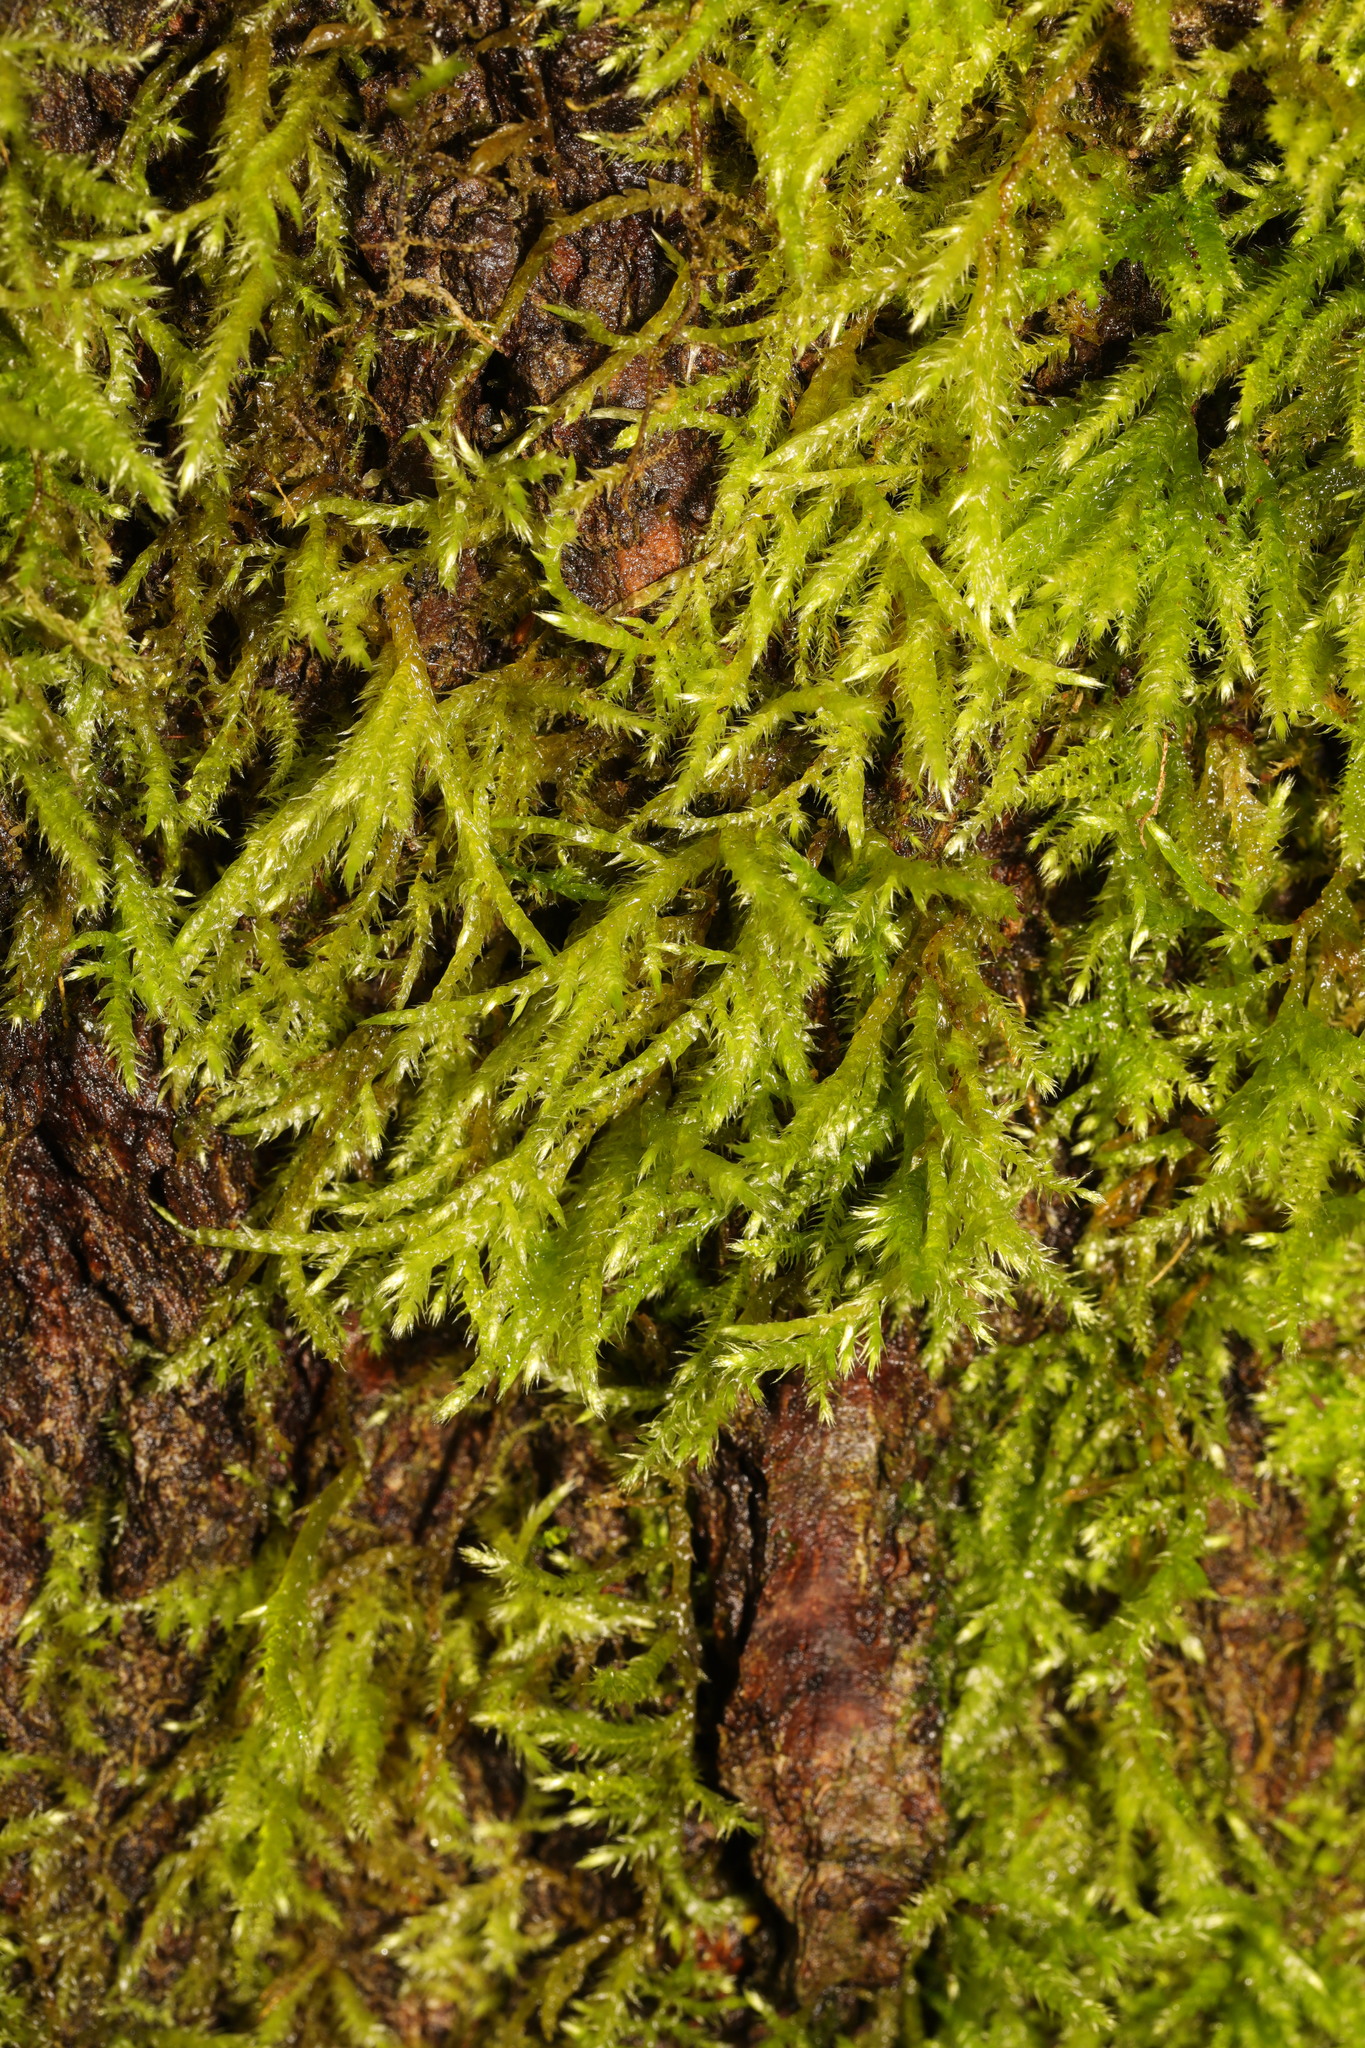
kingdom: Plantae
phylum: Bryophyta
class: Bryopsida
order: Hypnales
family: Hypnaceae
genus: Hypnum
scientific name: Hypnum cupressiforme
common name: Cypress-leaved plait-moss
